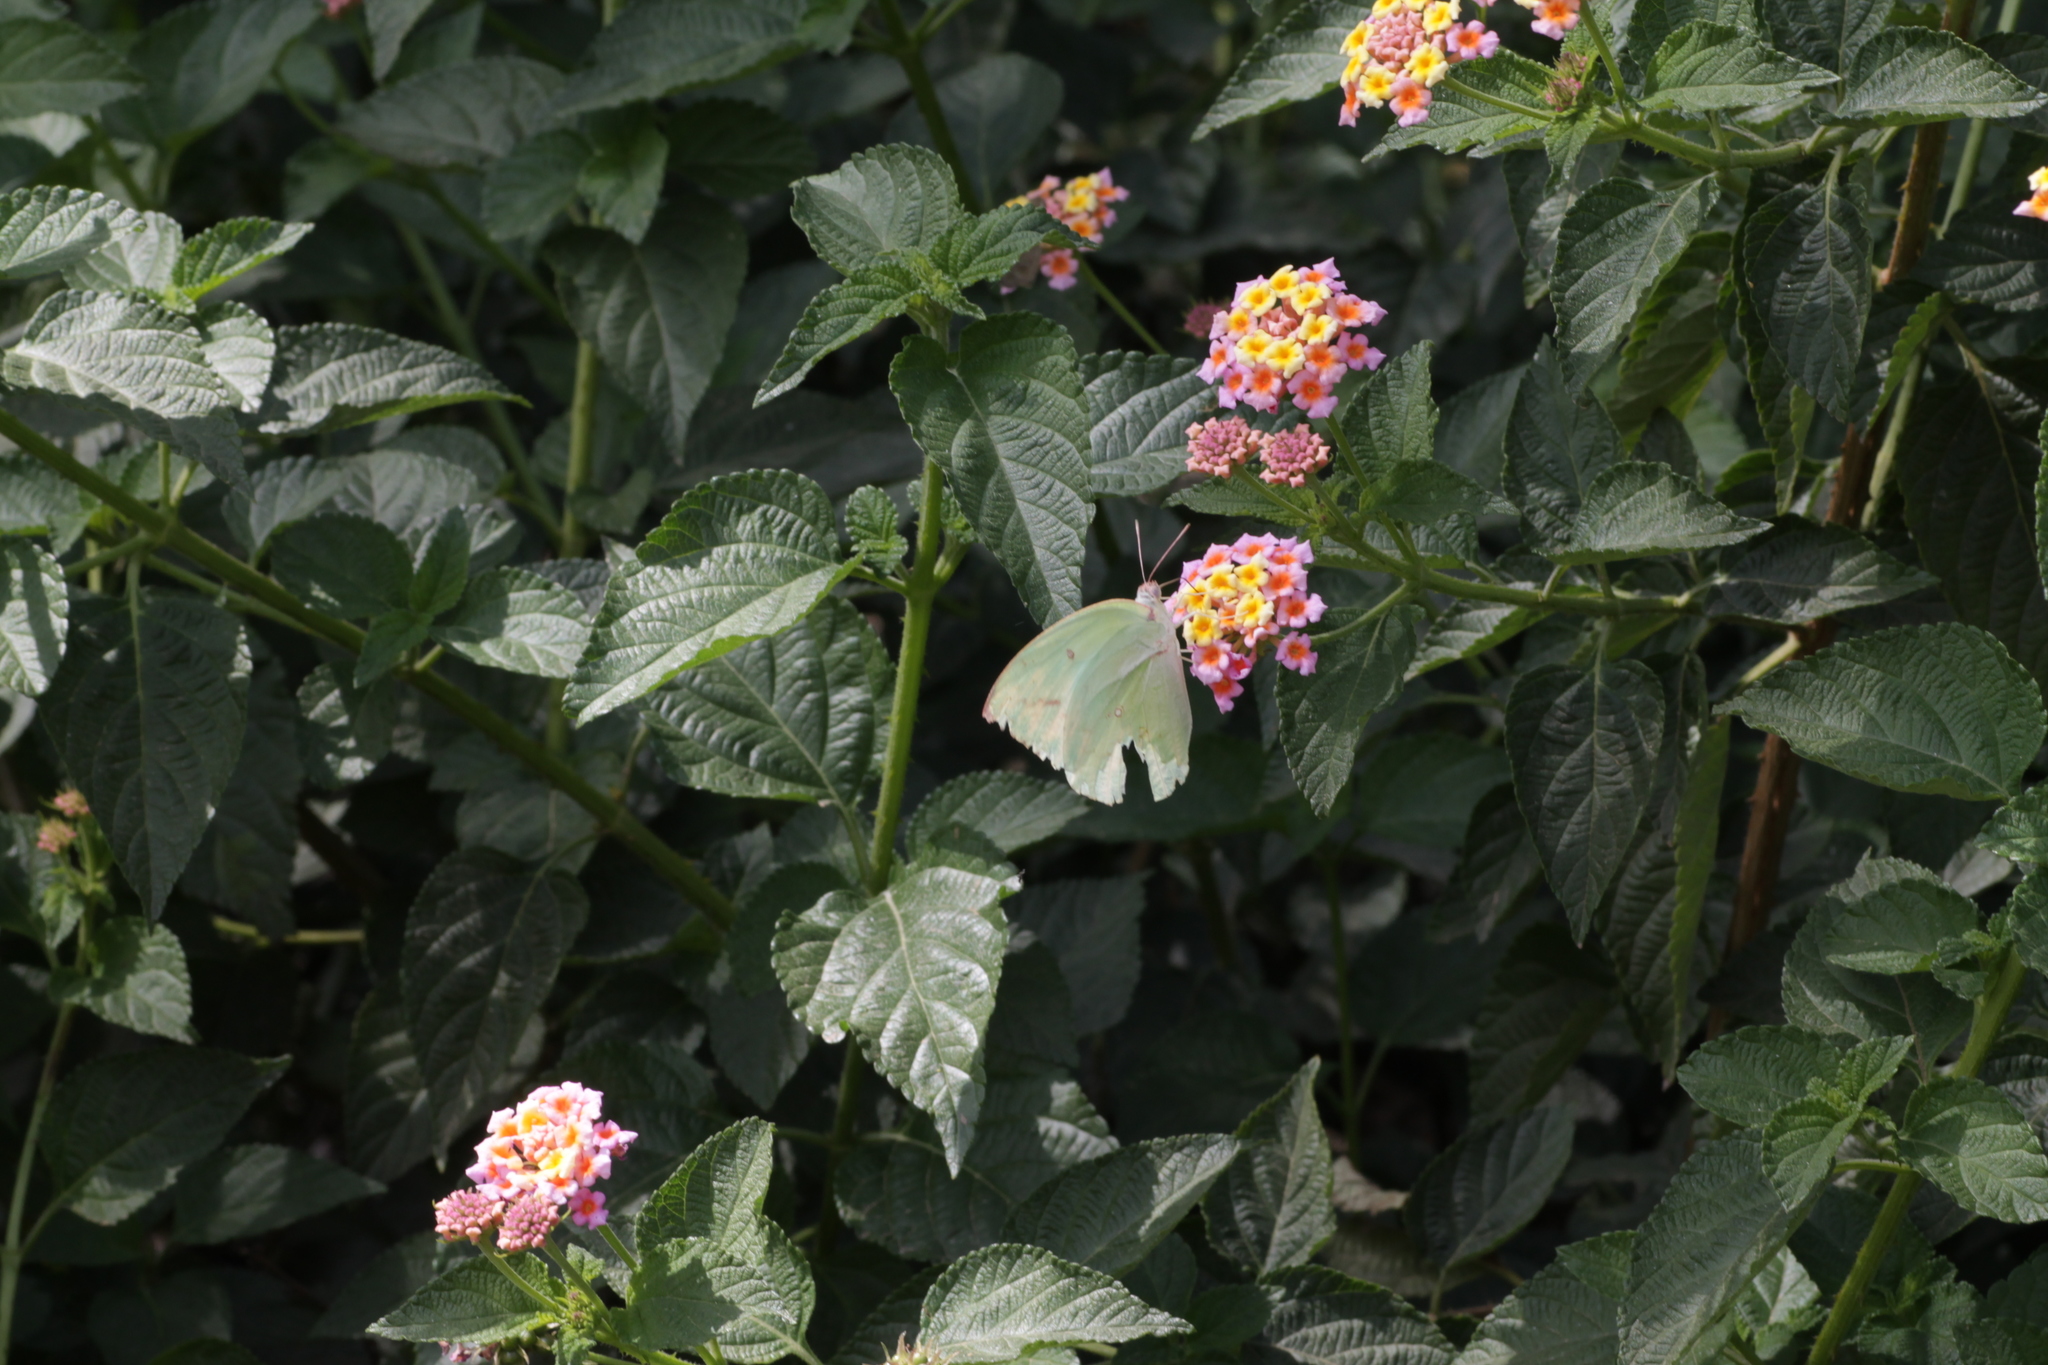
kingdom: Animalia
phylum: Arthropoda
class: Insecta
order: Lepidoptera
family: Pieridae
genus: Catopsilia
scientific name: Catopsilia pomona
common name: Common emigrant
